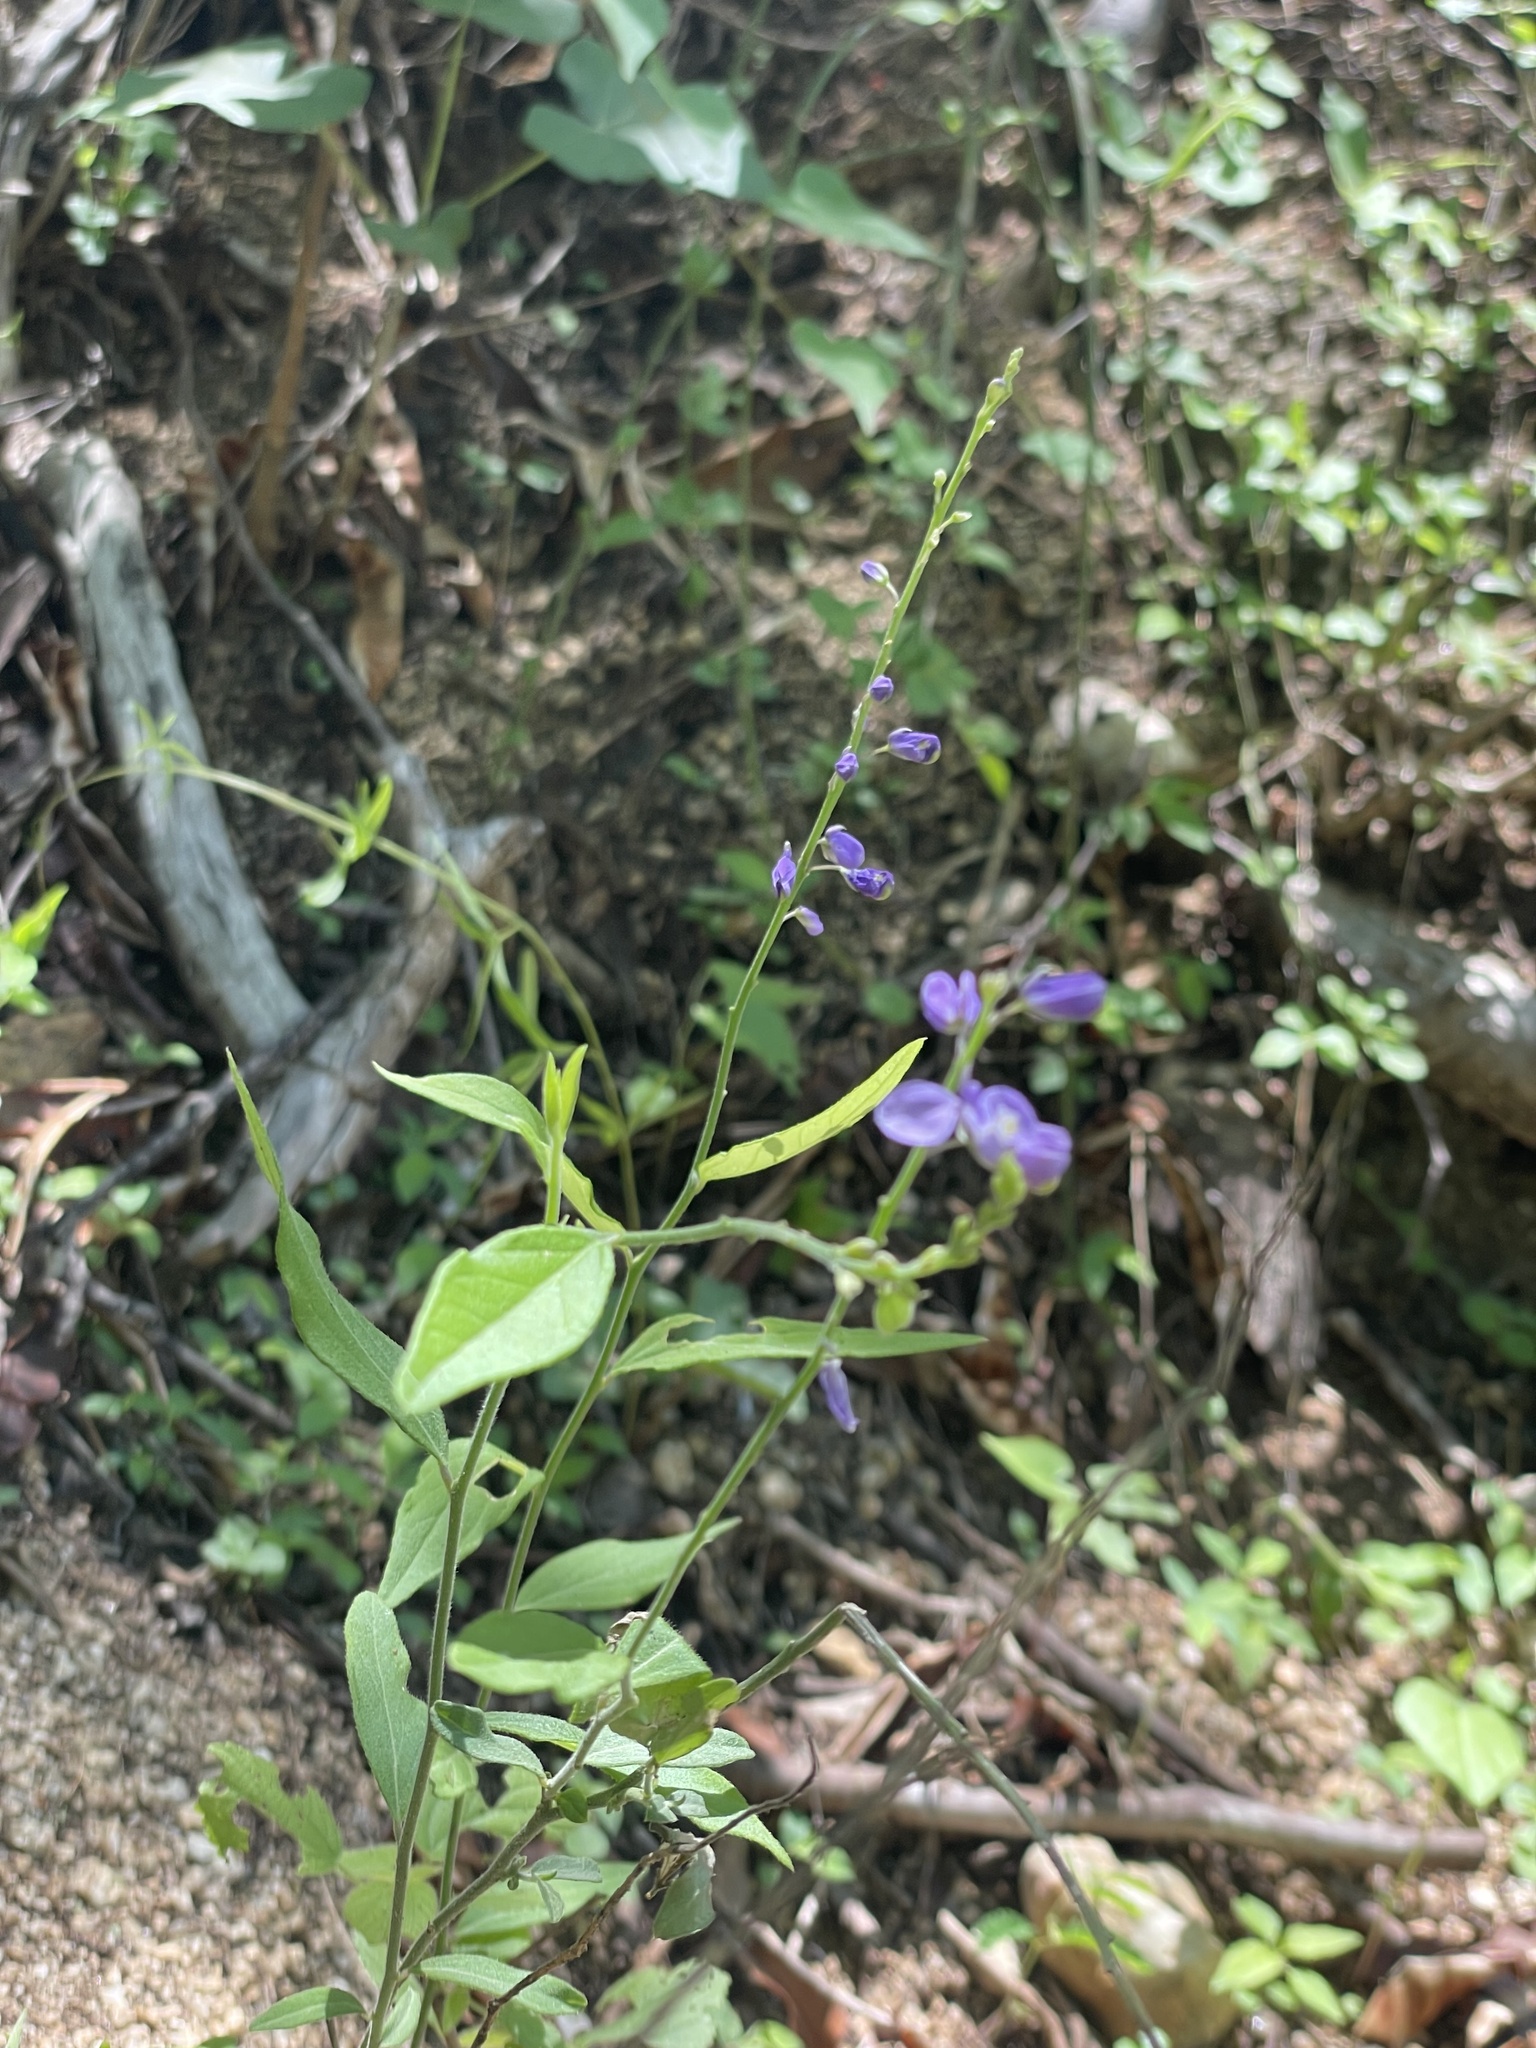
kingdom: Plantae
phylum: Tracheophyta
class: Magnoliopsida
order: Fabales
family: Polygalaceae
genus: Polygala
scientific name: Polygala russelliana
